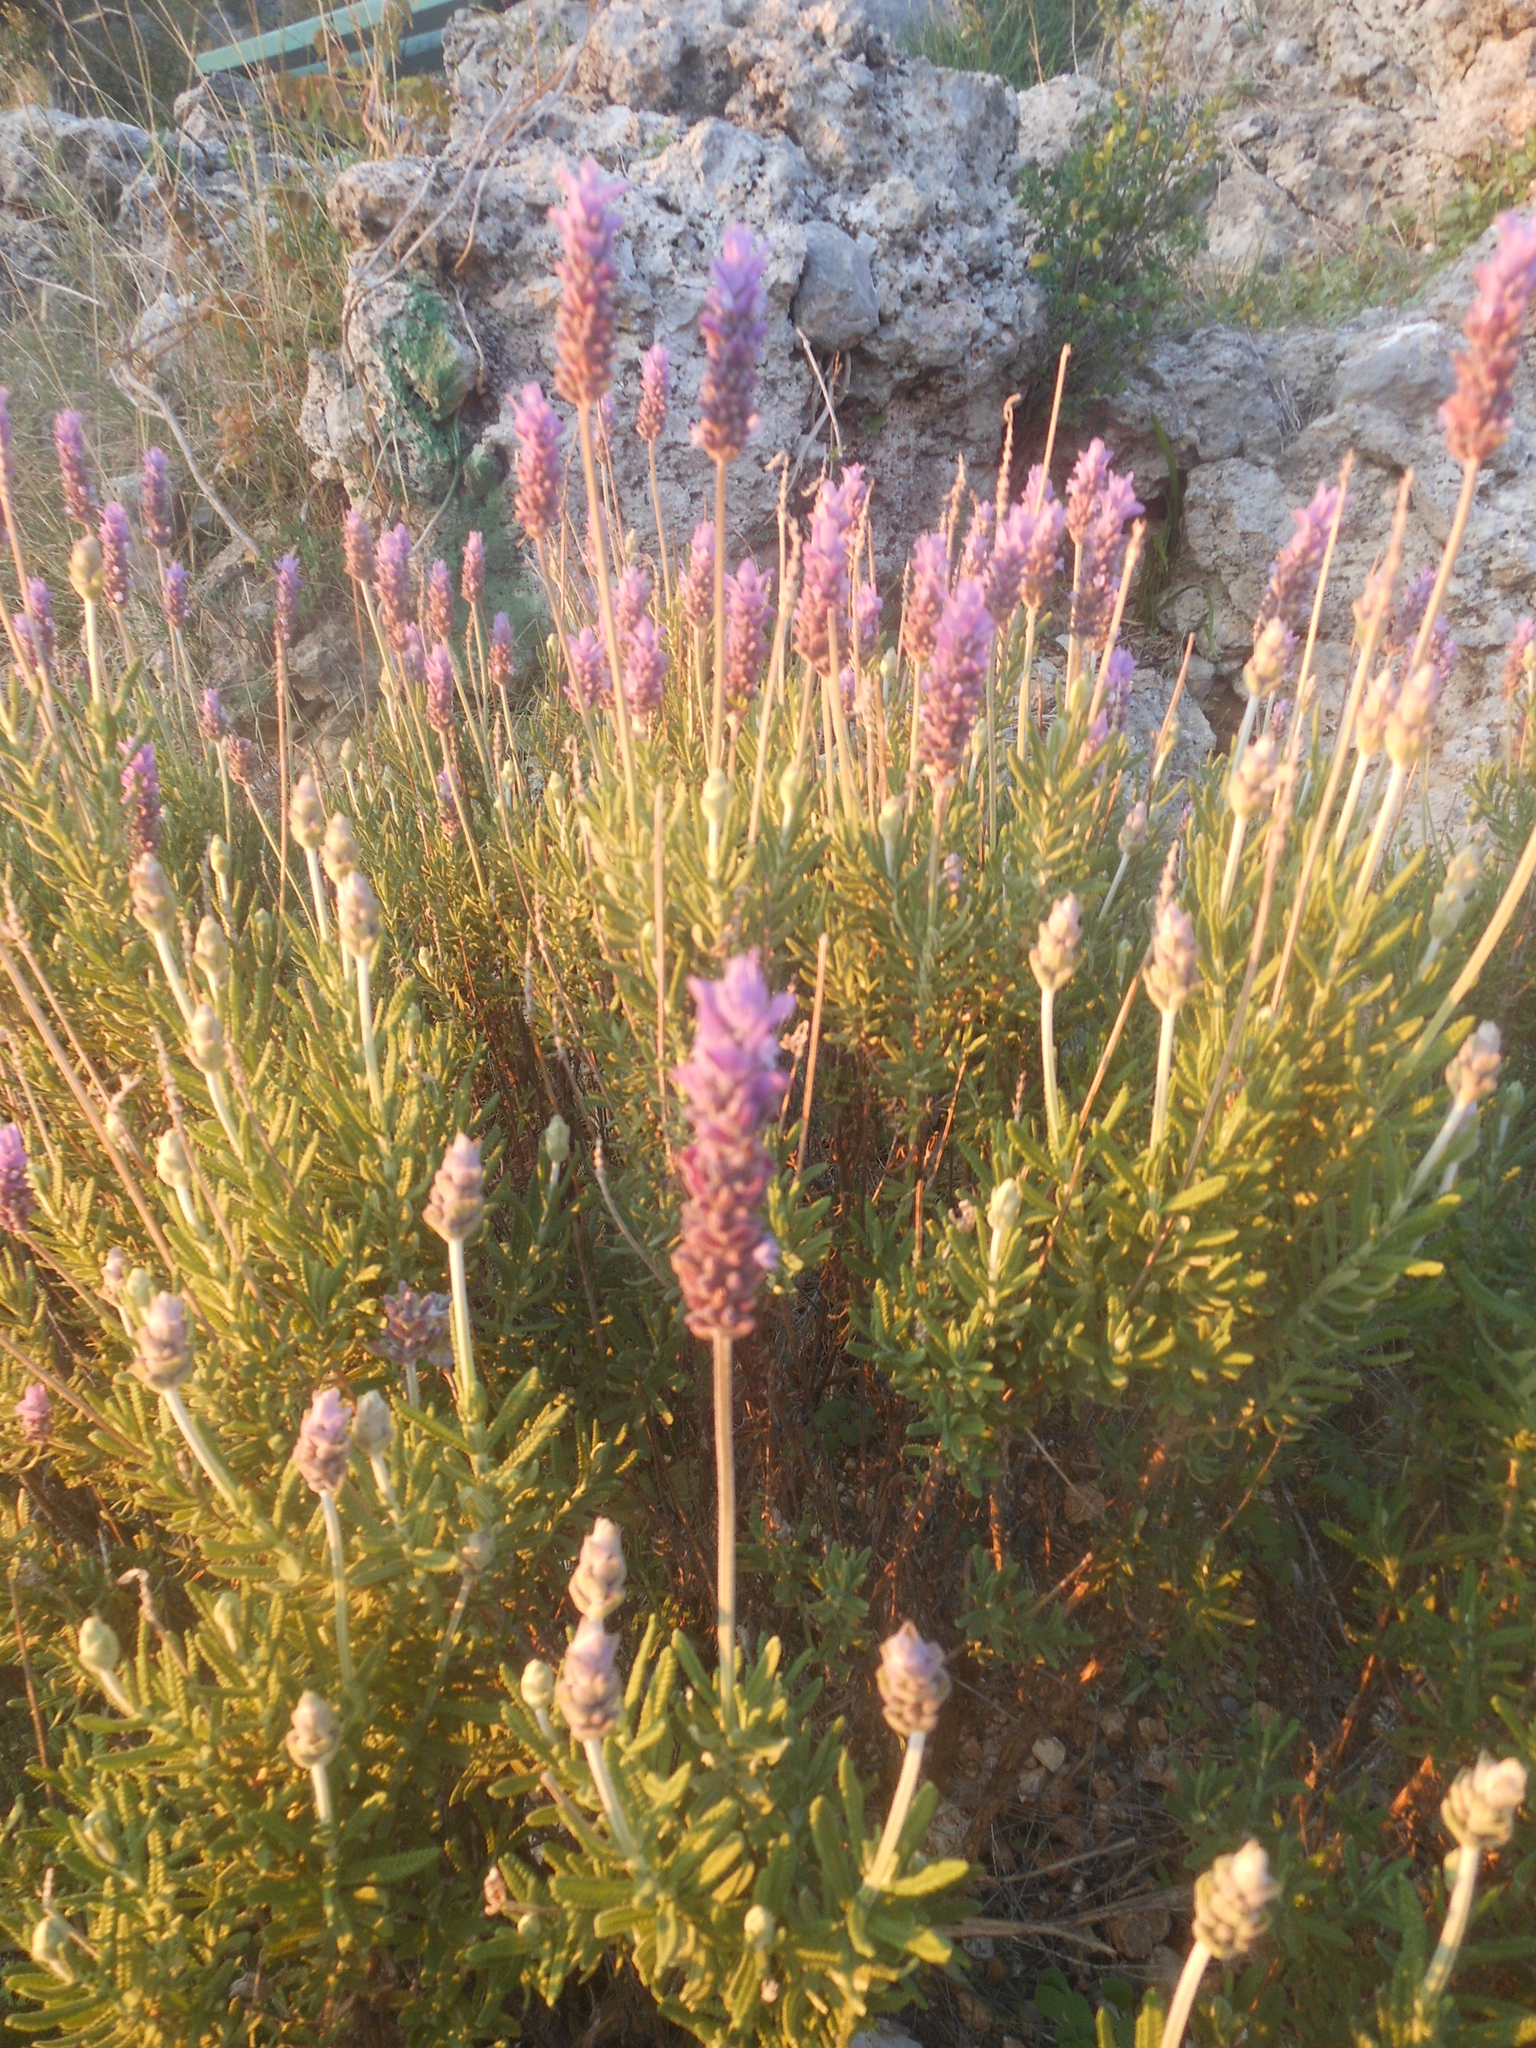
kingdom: Plantae
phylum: Tracheophyta
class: Magnoliopsida
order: Lamiales
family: Lamiaceae
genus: Lavandula
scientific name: Lavandula dentata
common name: French lavender
